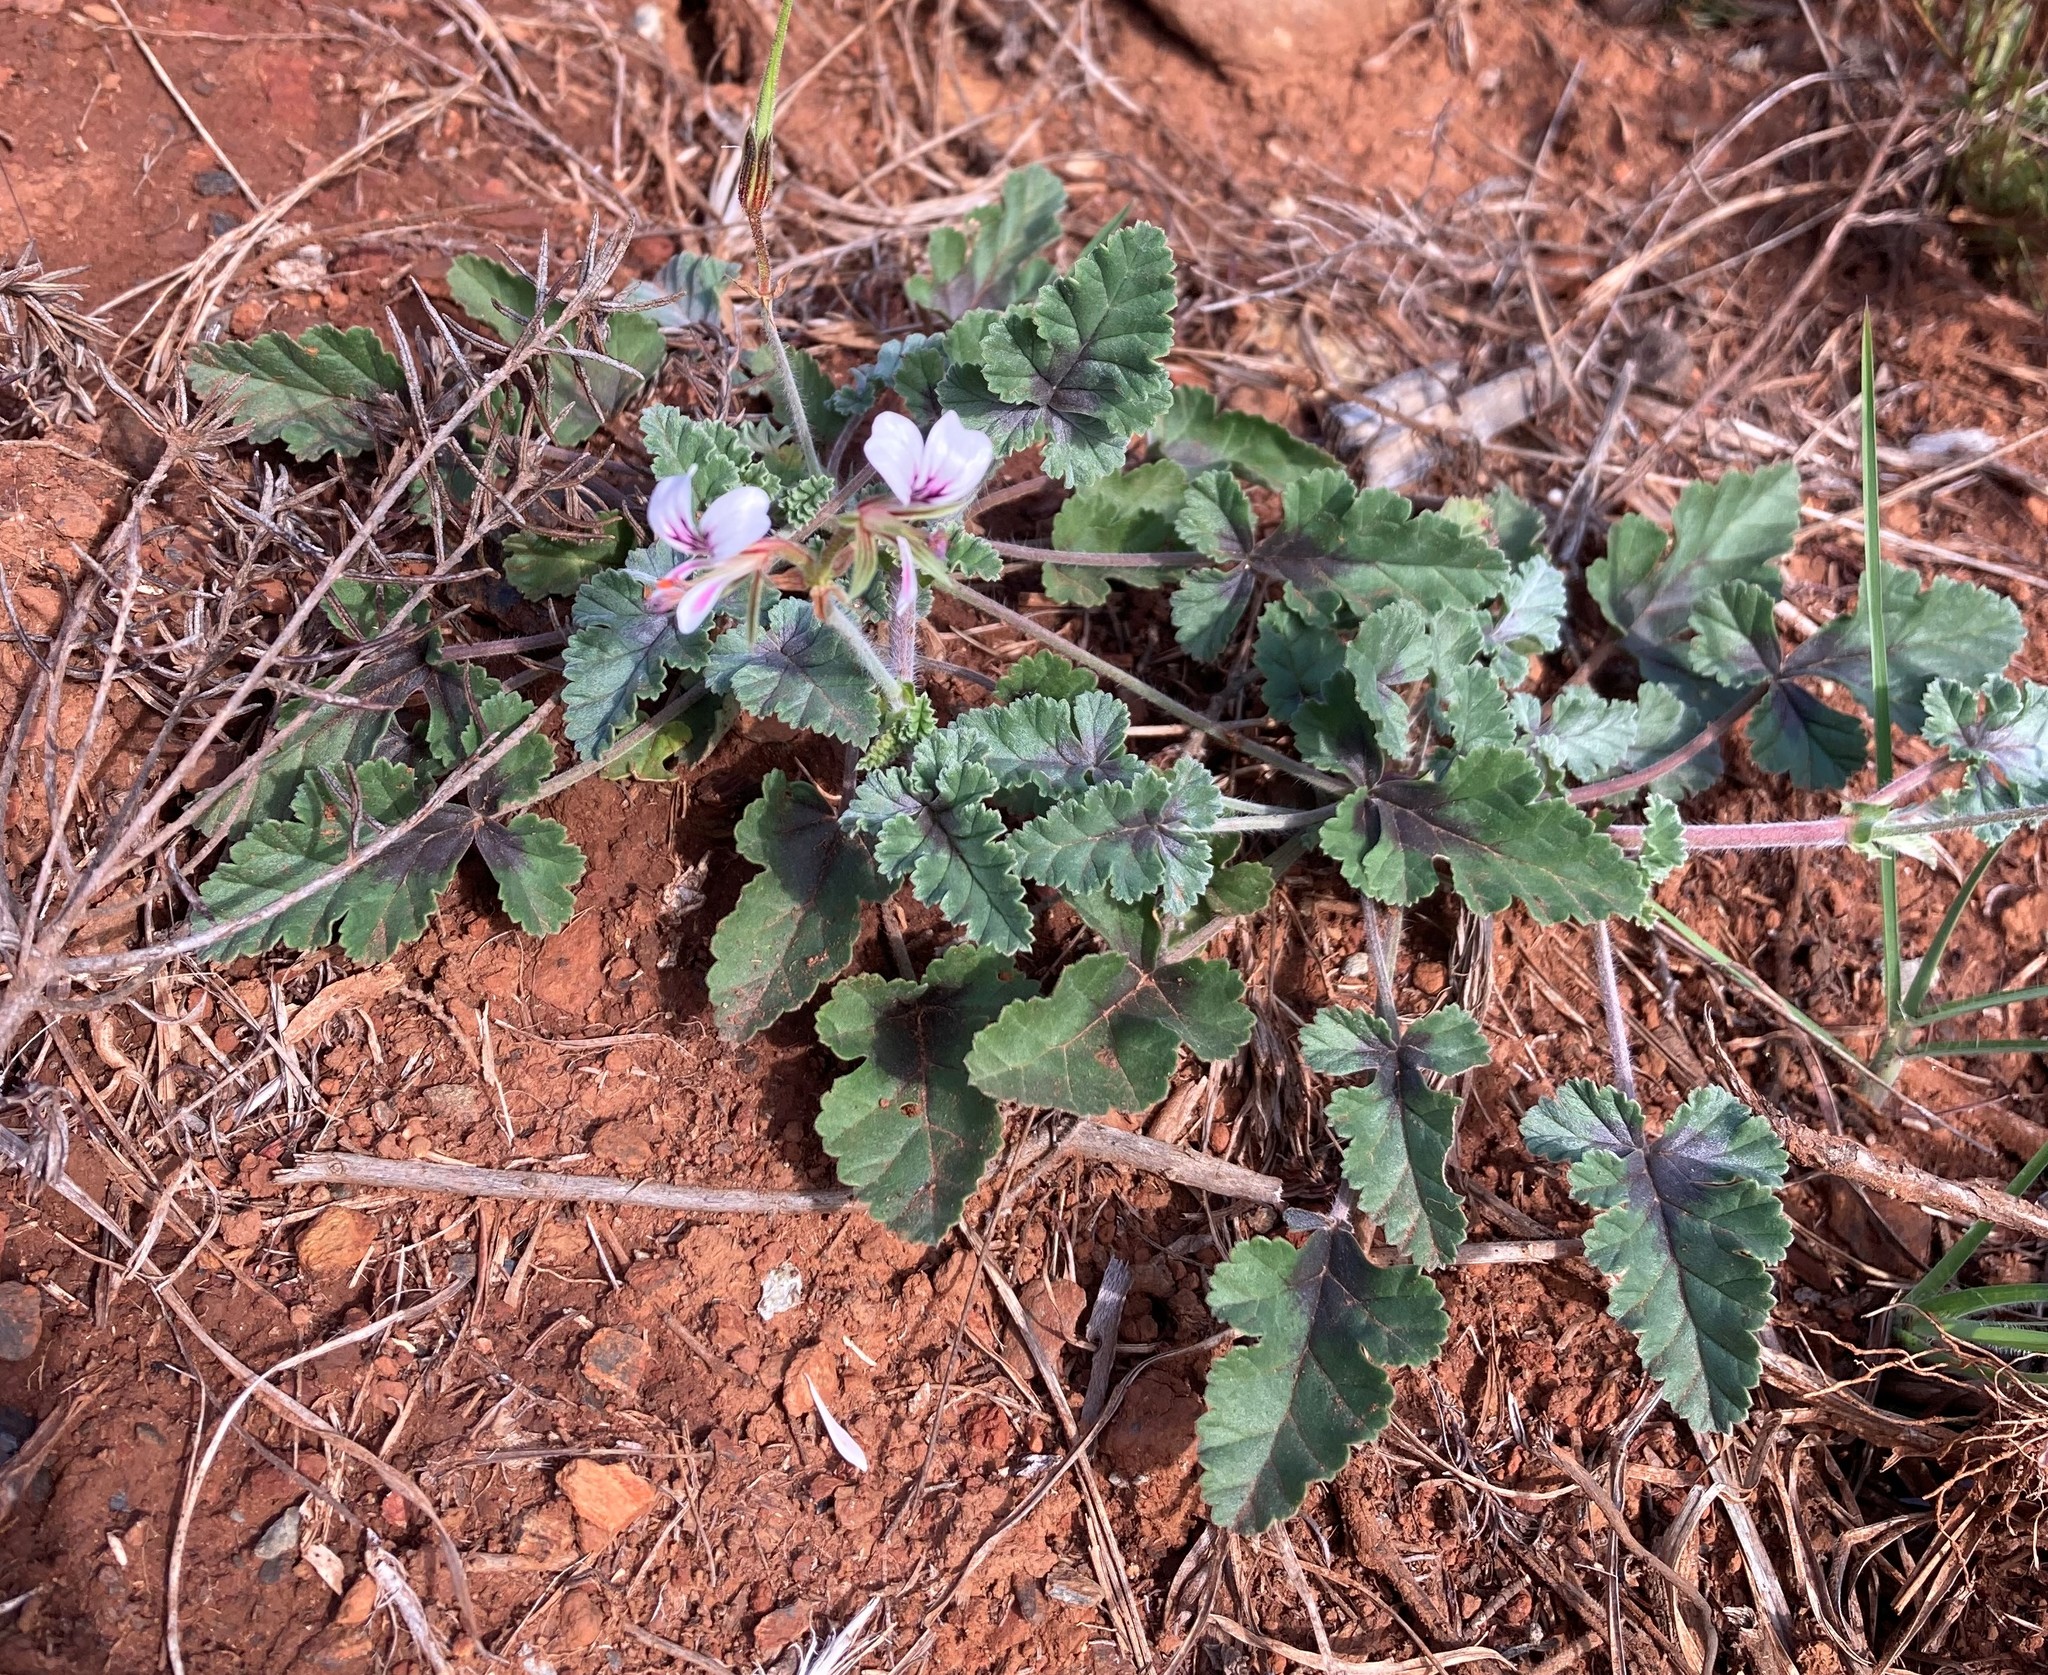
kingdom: Plantae
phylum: Tracheophyta
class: Magnoliopsida
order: Geraniales
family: Geraniaceae
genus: Pelargonium
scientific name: Pelargonium candicans
